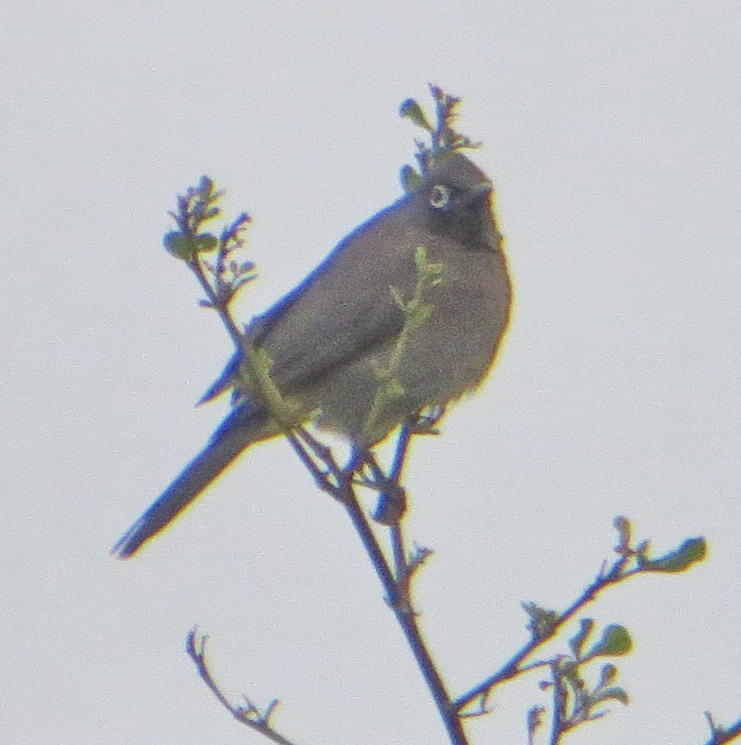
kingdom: Animalia
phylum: Chordata
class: Aves
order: Passeriformes
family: Pycnonotidae
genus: Pycnonotus
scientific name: Pycnonotus capensis
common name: Cape bulbul
